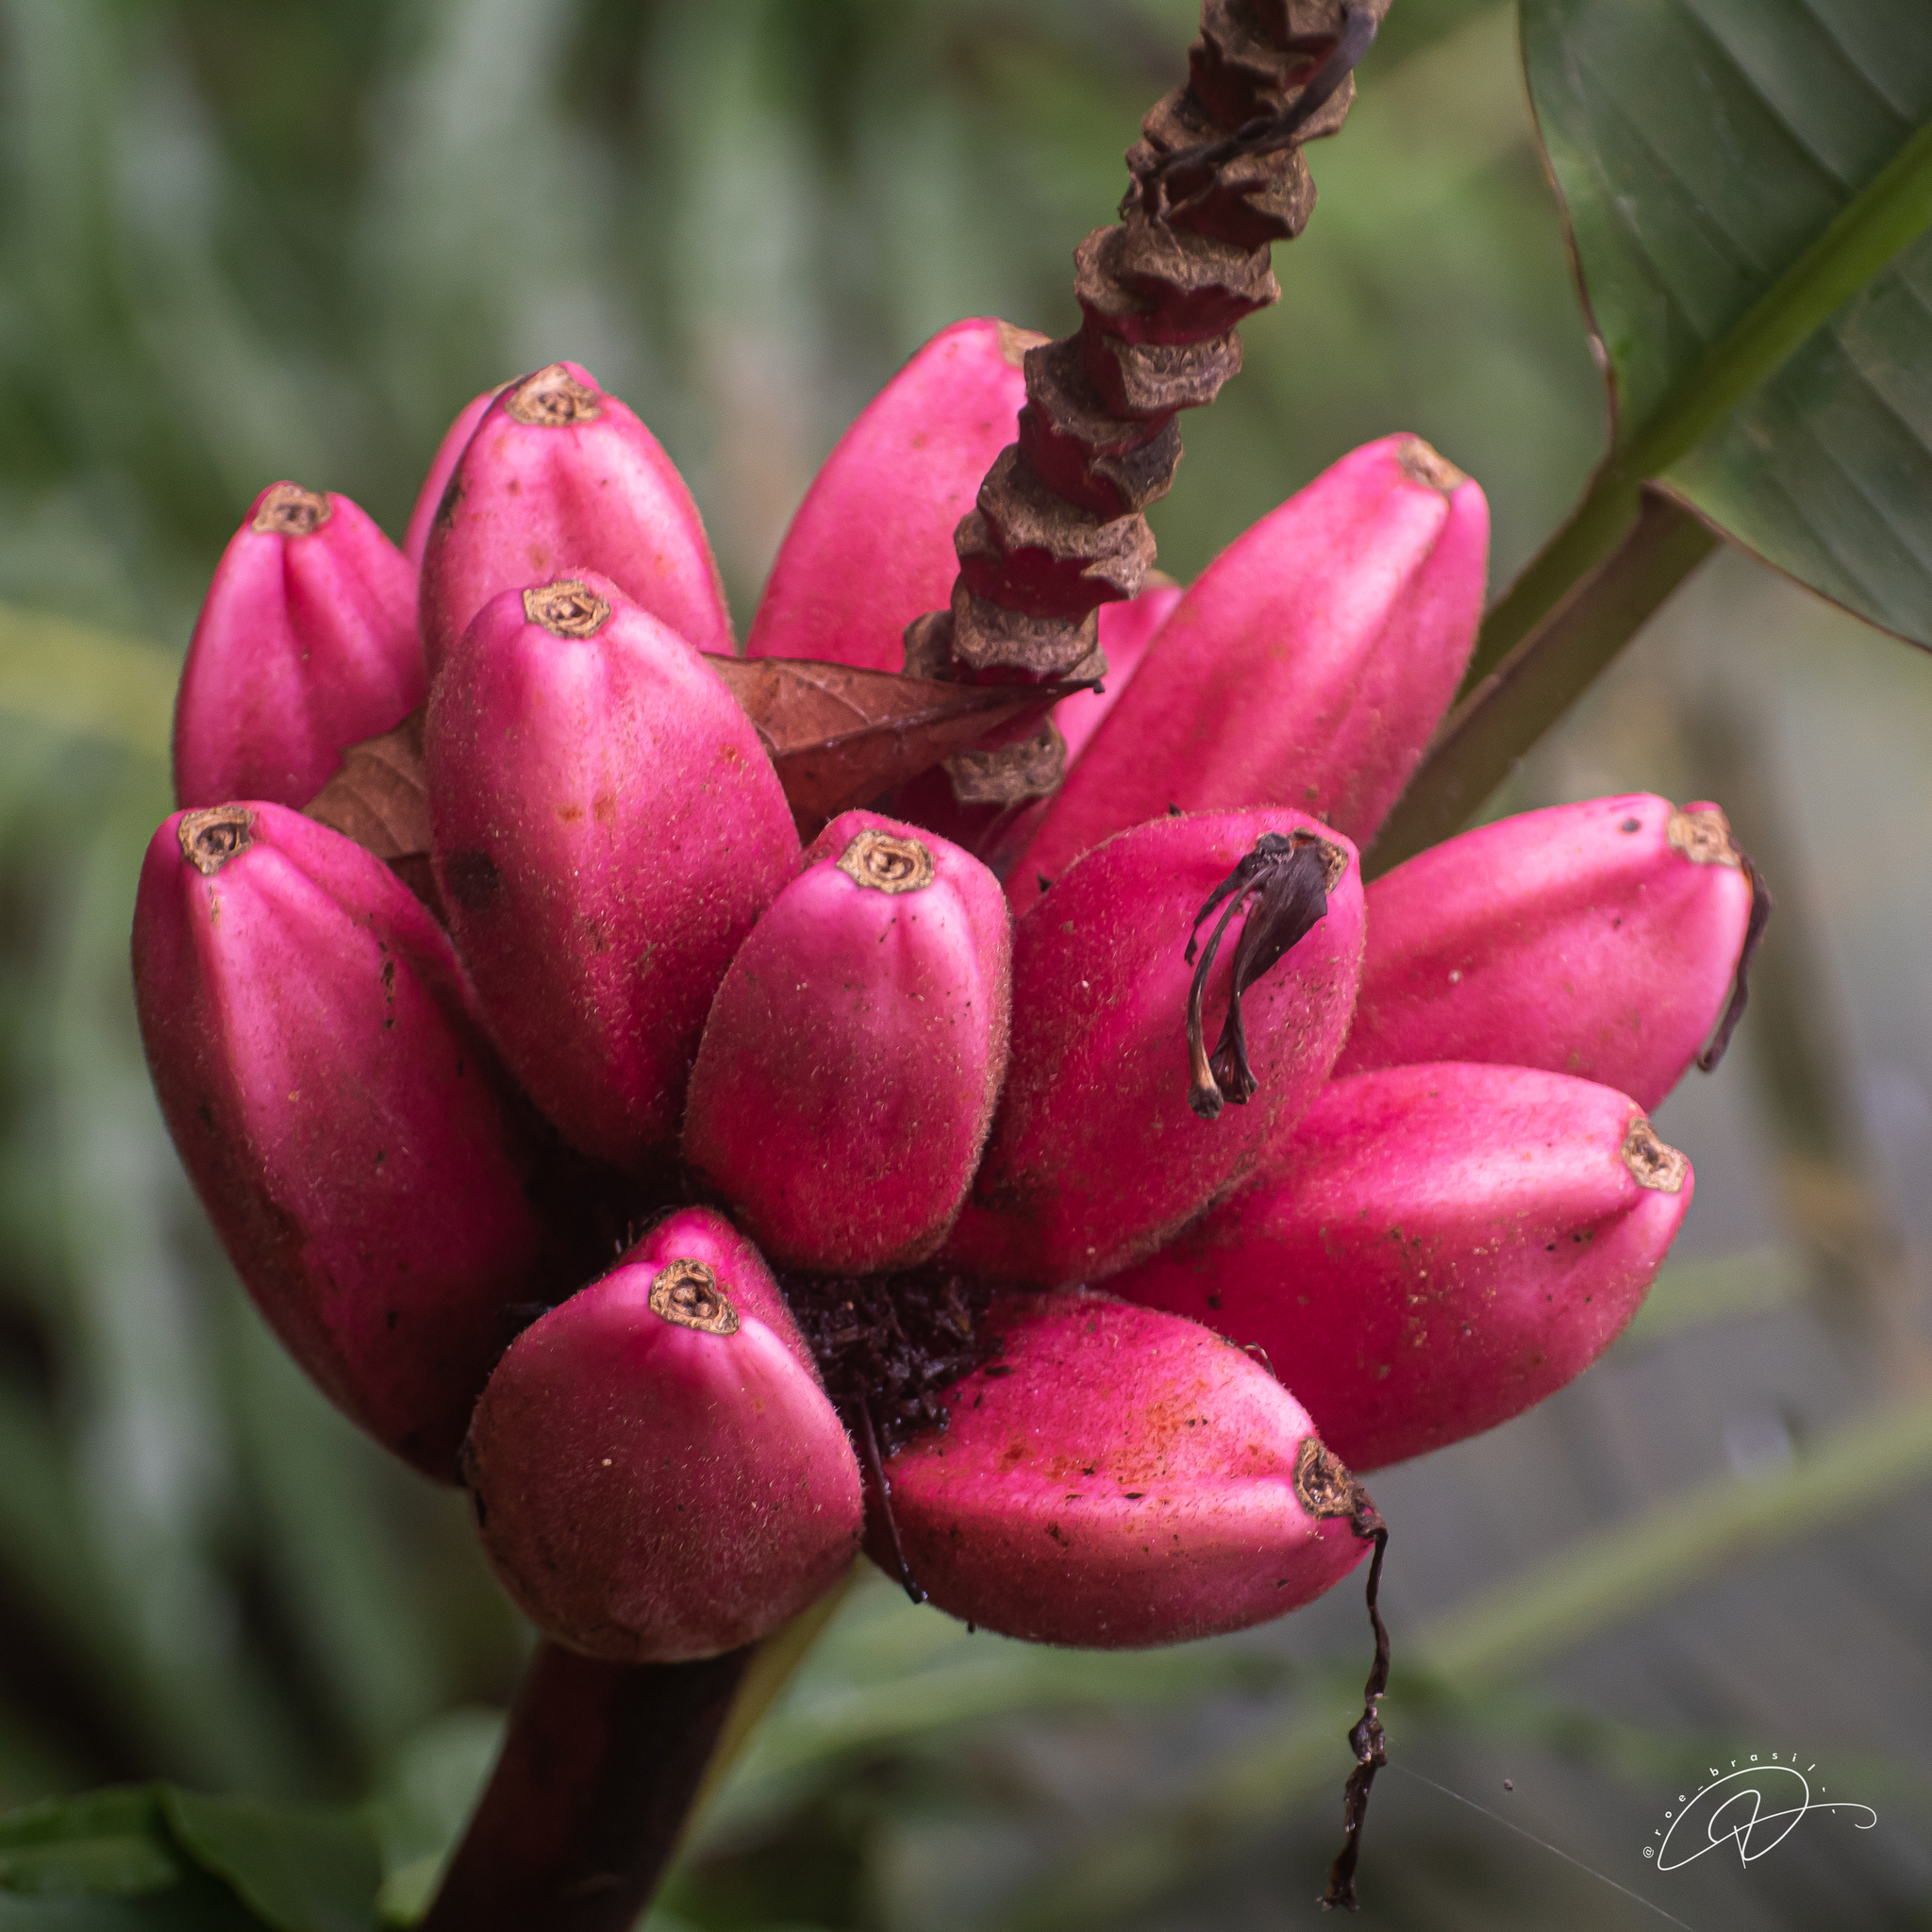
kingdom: Plantae
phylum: Tracheophyta
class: Liliopsida
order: Zingiberales
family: Musaceae
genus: Musa
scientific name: Musa velutina
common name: Pink velvet banana
